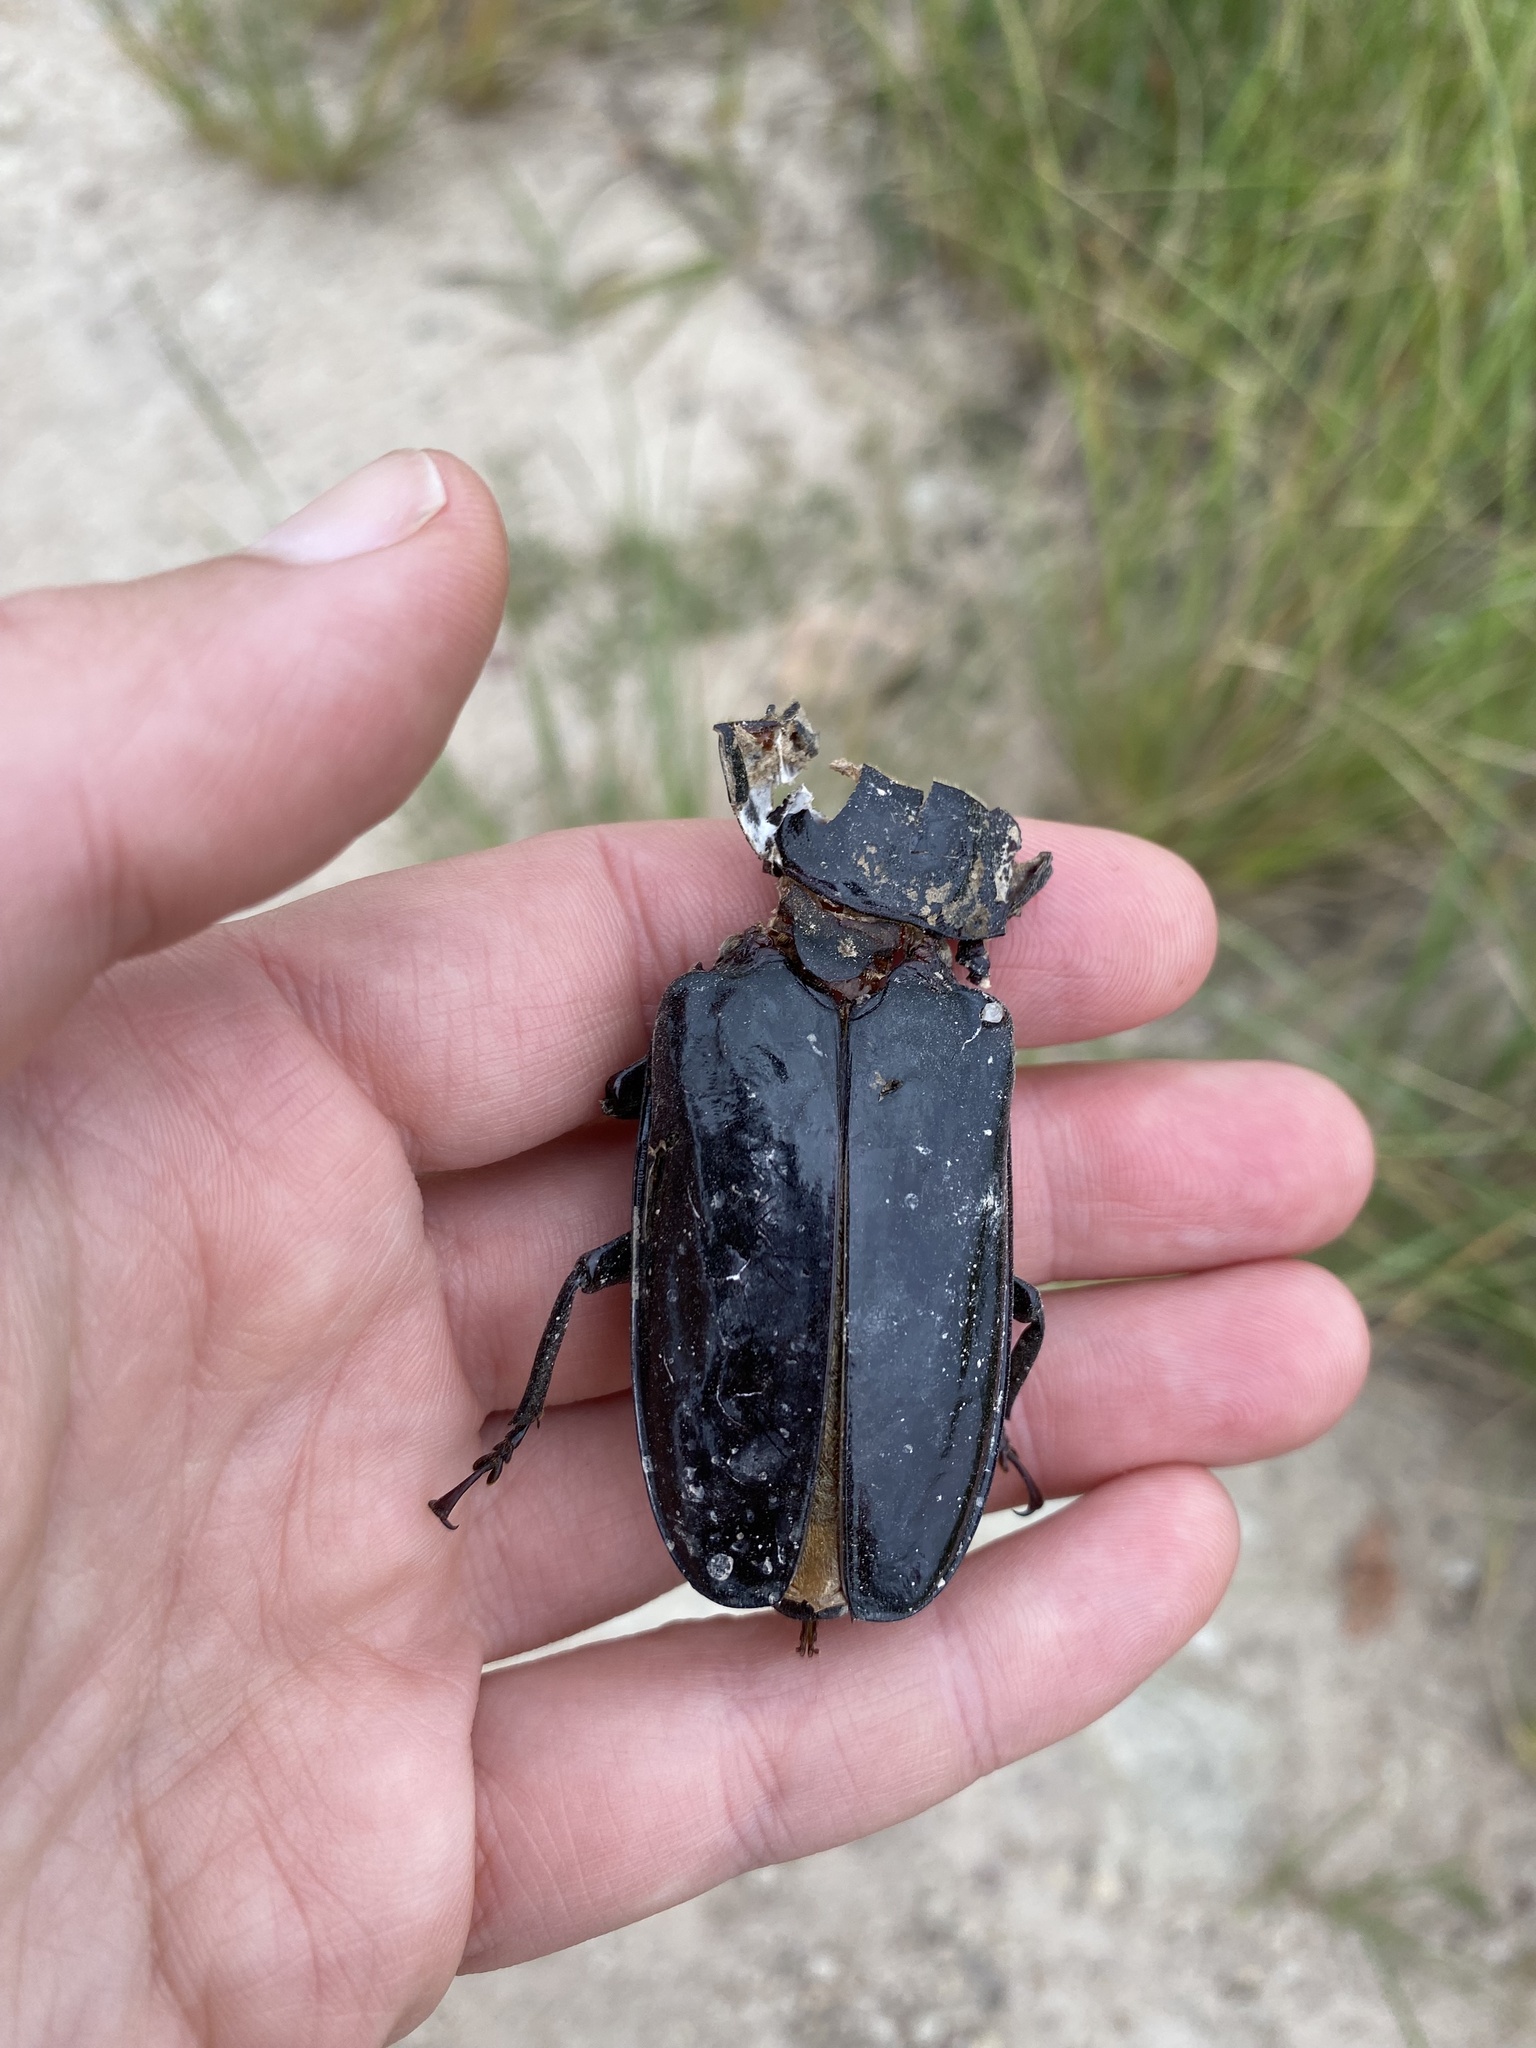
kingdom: Animalia
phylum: Arthropoda
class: Insecta
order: Coleoptera
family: Cerambycidae
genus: Mallodon
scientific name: Mallodon downesii
